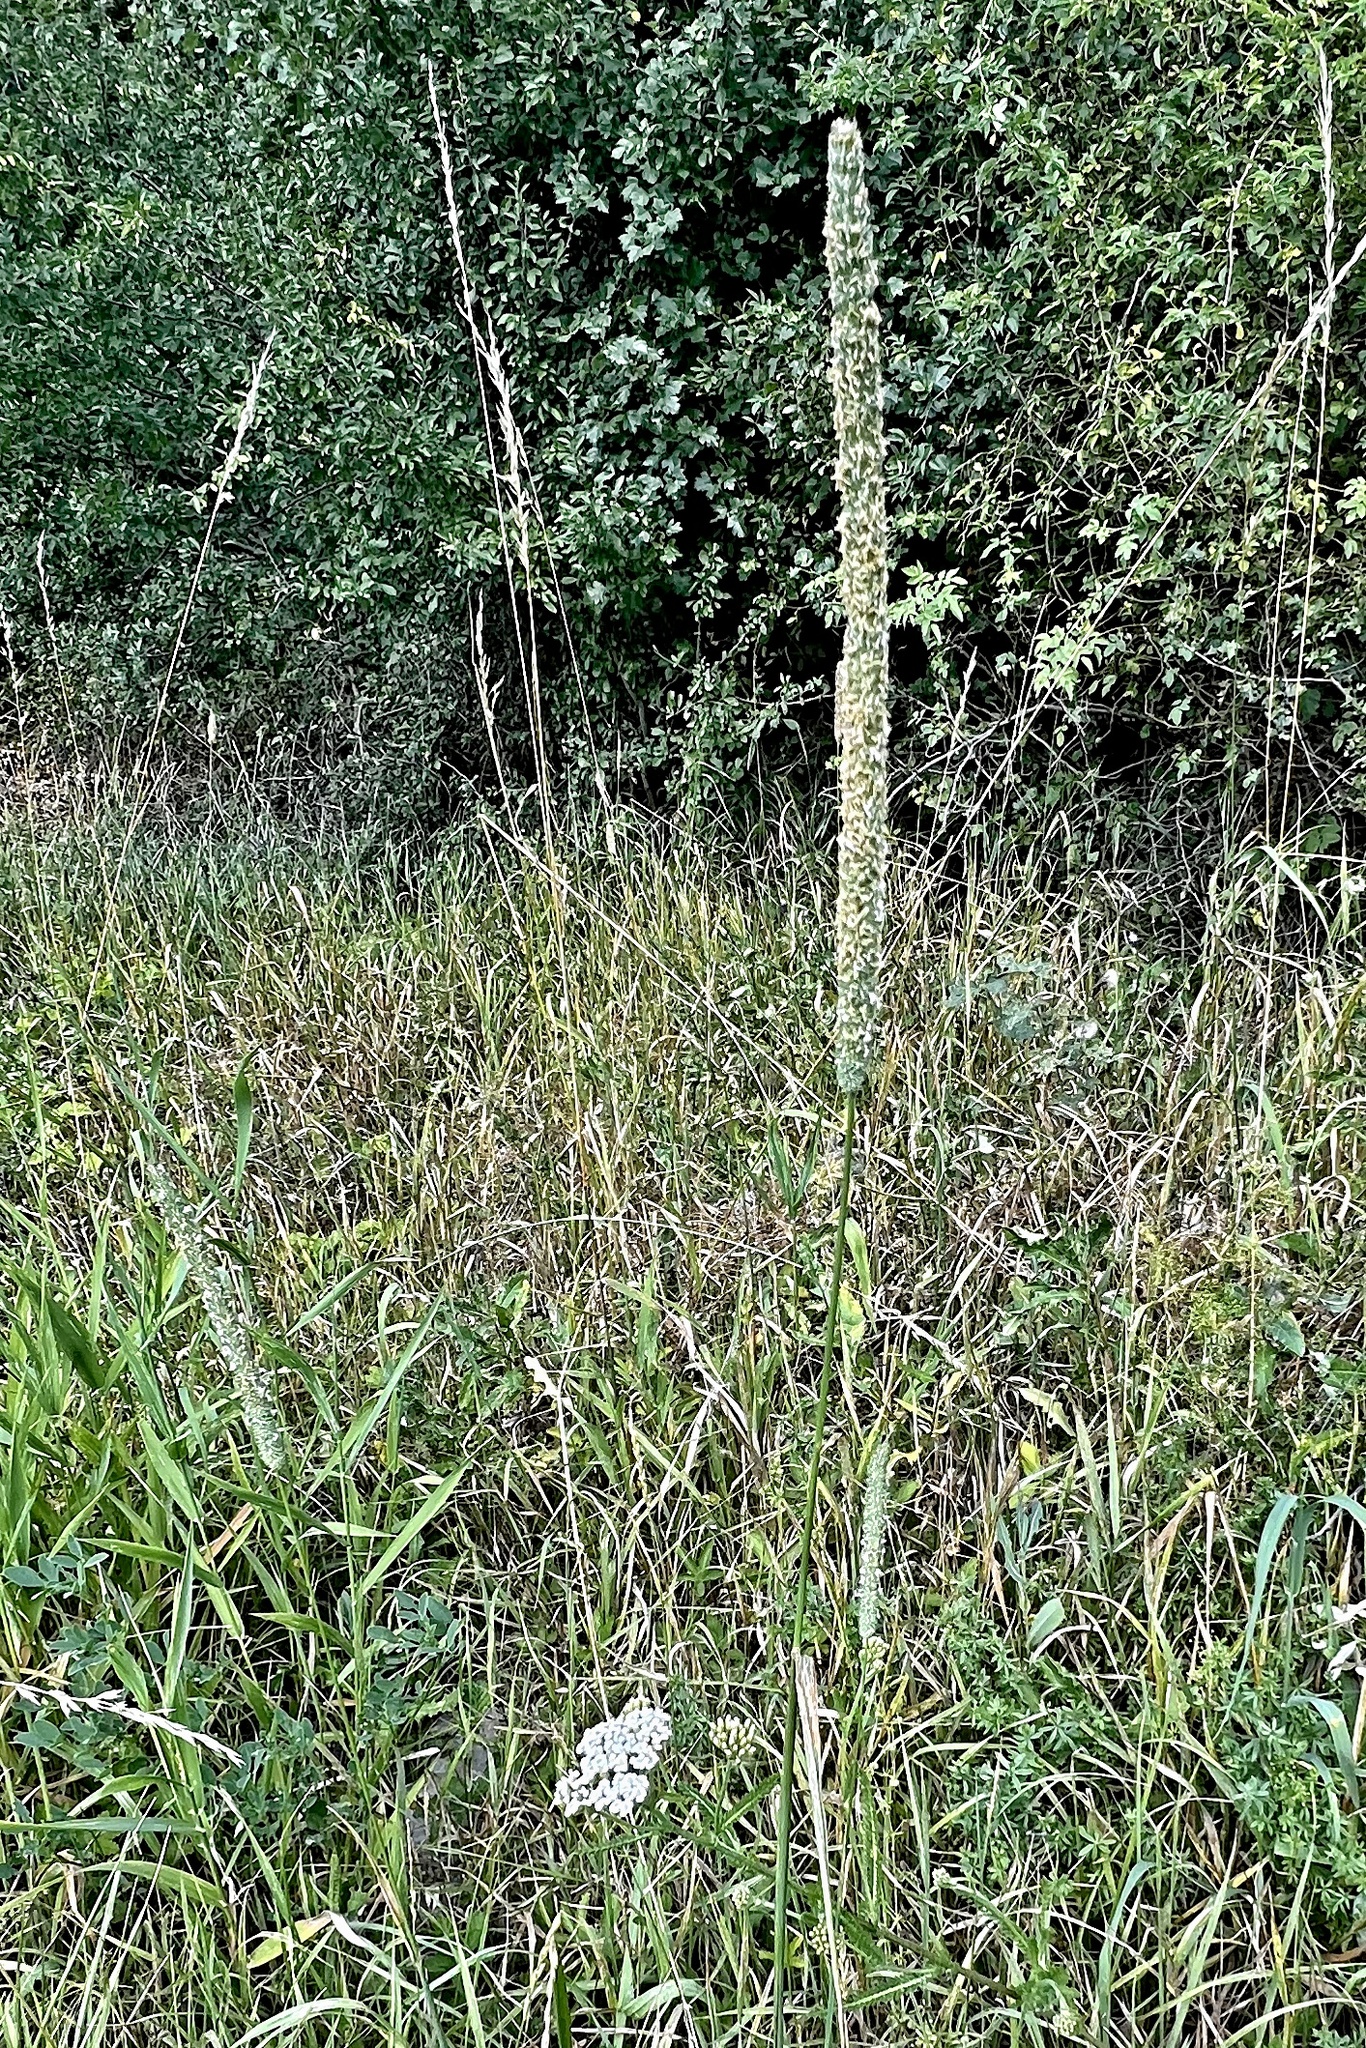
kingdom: Plantae
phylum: Tracheophyta
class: Liliopsida
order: Poales
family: Poaceae
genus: Phleum
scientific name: Phleum pratense
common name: Timothy grass
